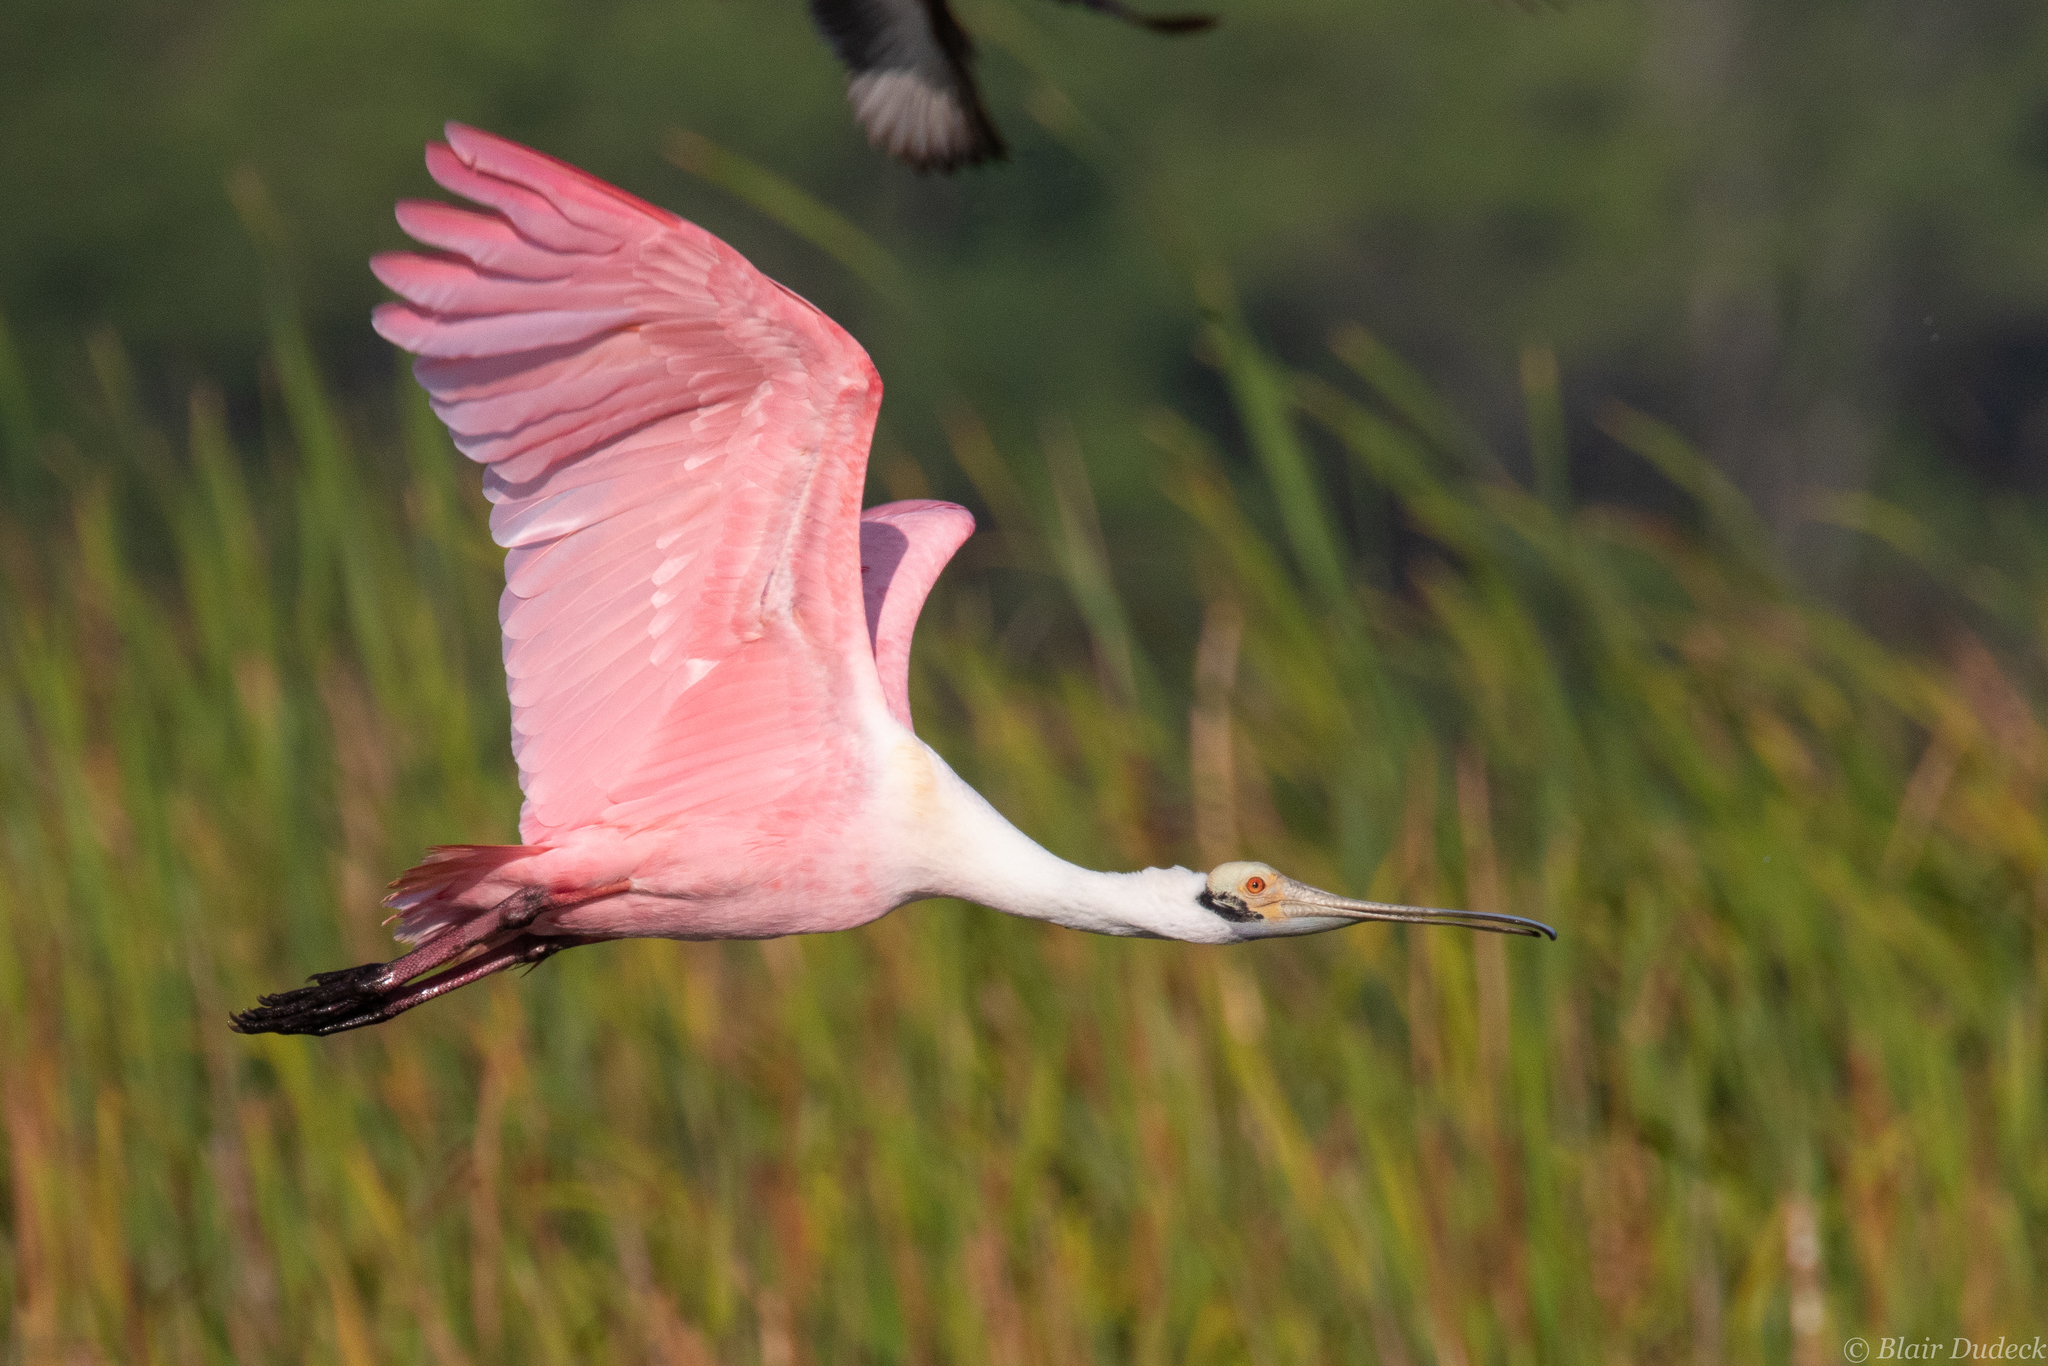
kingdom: Animalia
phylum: Chordata
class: Aves
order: Pelecaniformes
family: Threskiornithidae
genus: Platalea
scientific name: Platalea ajaja
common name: Roseate spoonbill
